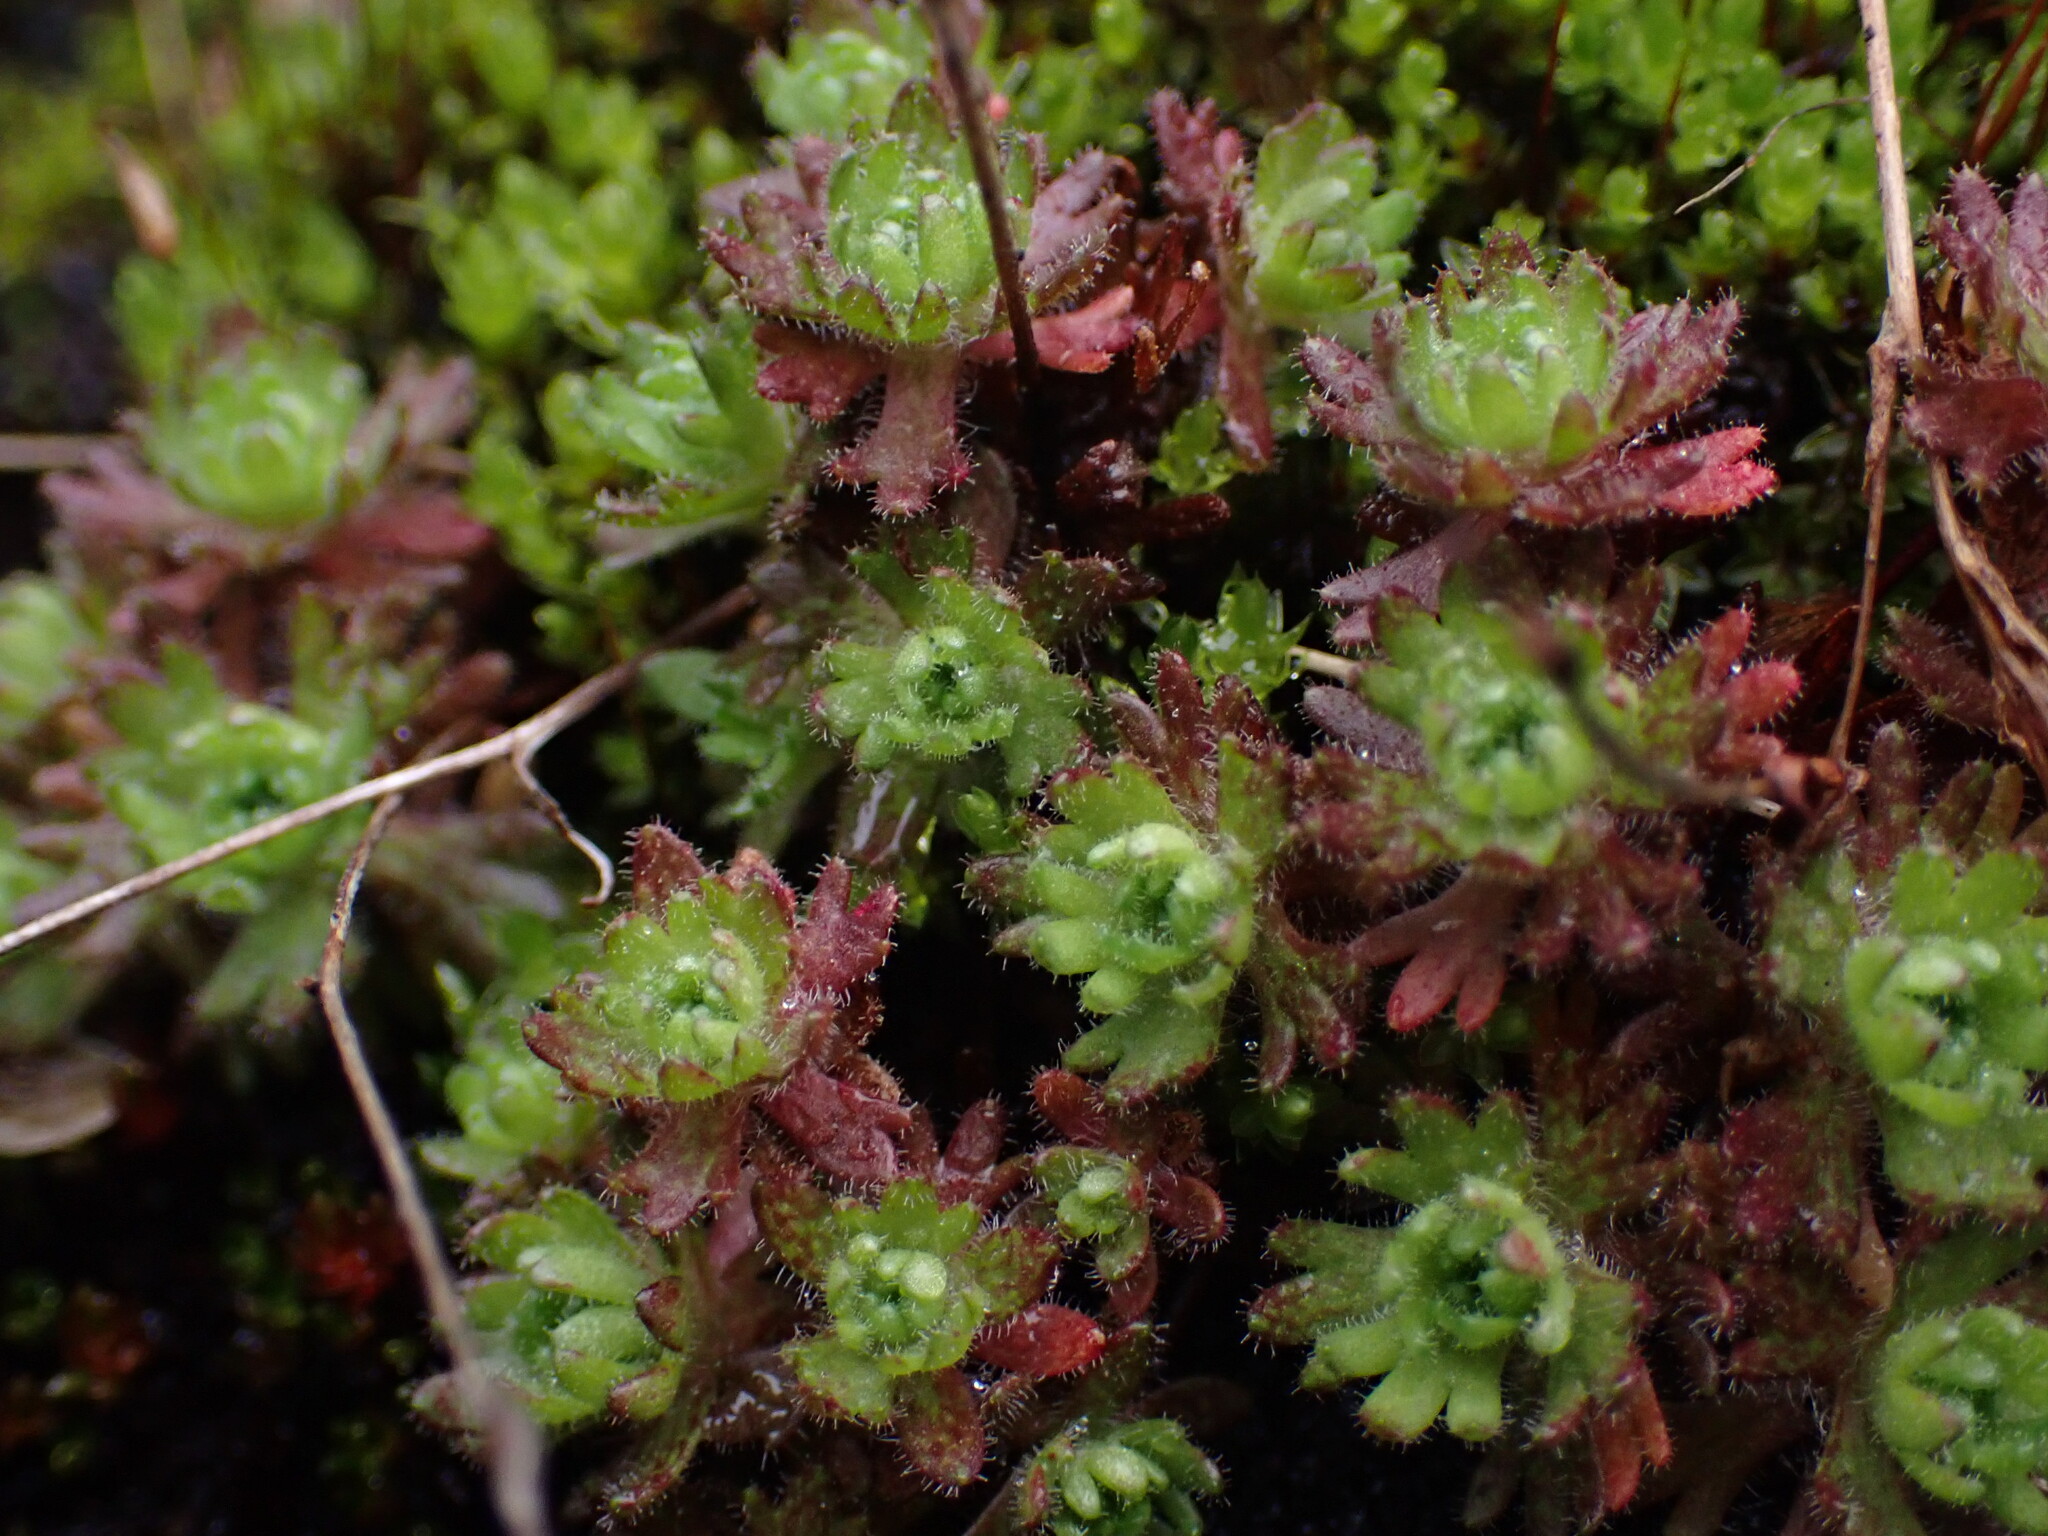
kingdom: Plantae
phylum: Tracheophyta
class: Magnoliopsida
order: Saxifragales
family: Saxifragaceae
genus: Saxifraga
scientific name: Saxifraga cespitosa
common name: Tufted saxifrage
